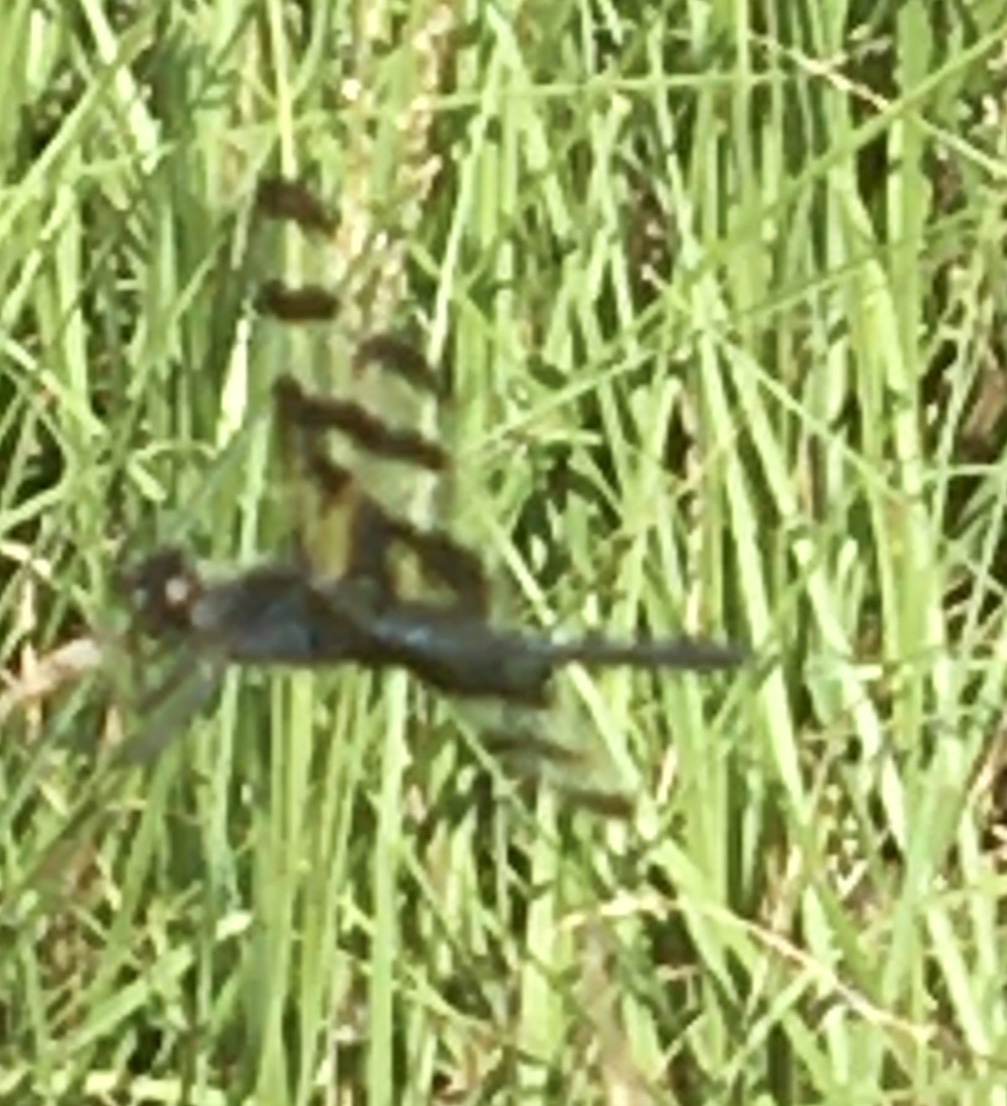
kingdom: Animalia
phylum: Arthropoda
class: Insecta
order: Odonata
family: Libellulidae
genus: Celithemis
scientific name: Celithemis fasciata
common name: Banded pennant
